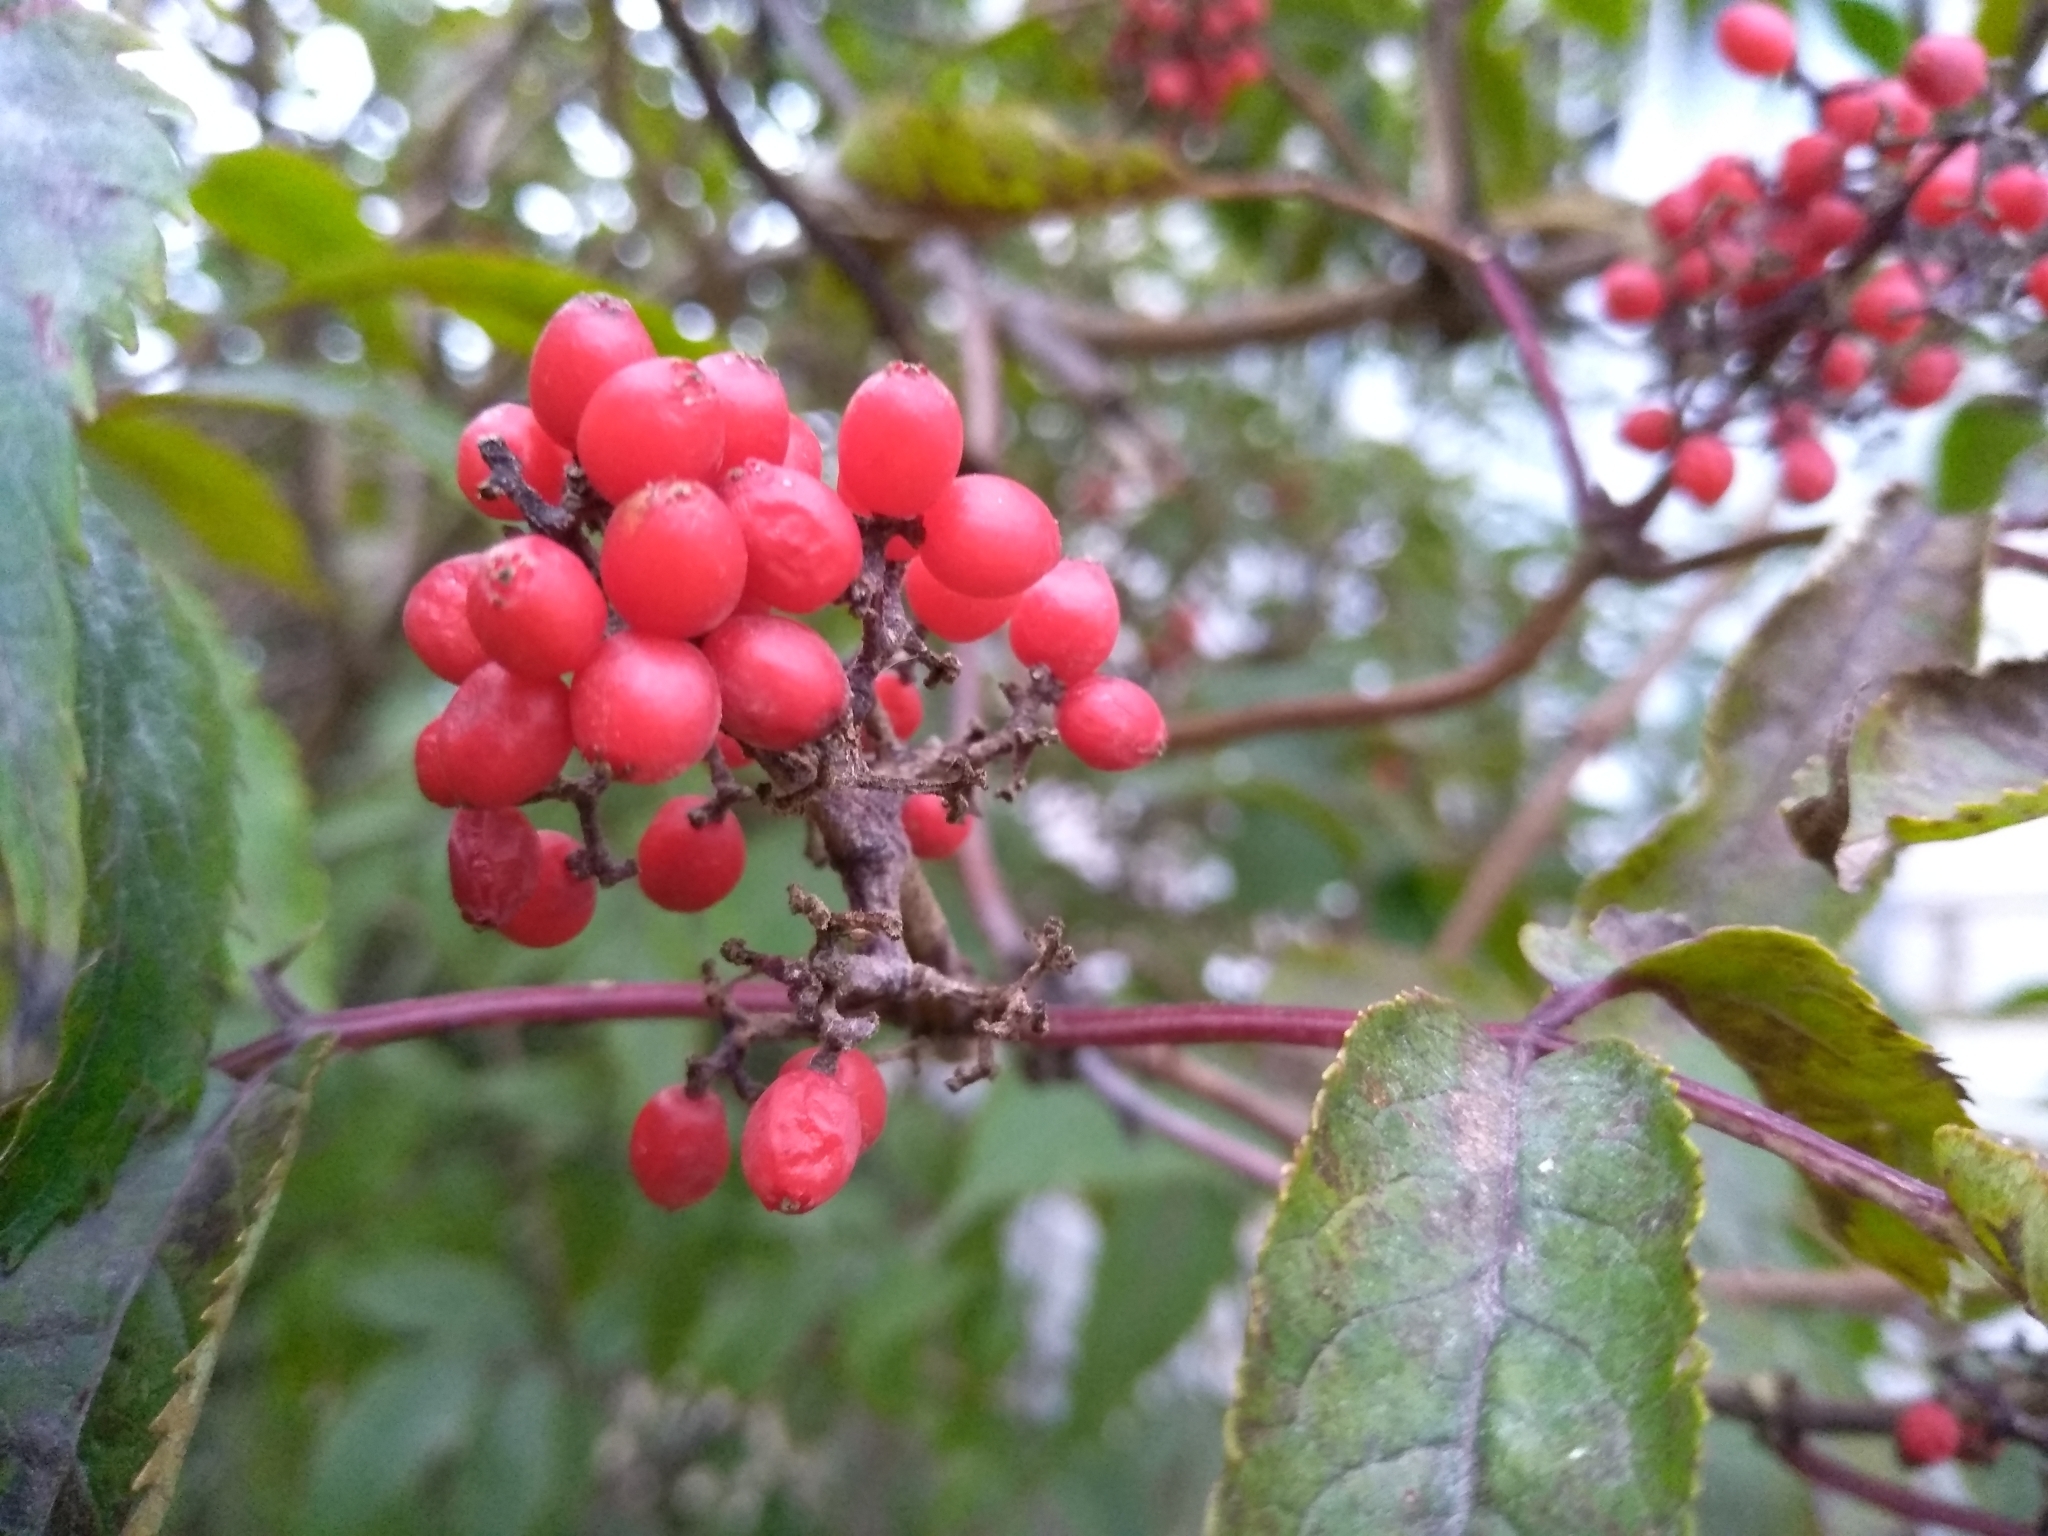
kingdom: Plantae
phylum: Tracheophyta
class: Magnoliopsida
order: Dipsacales
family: Viburnaceae
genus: Sambucus
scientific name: Sambucus racemosa
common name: Red-berried elder
